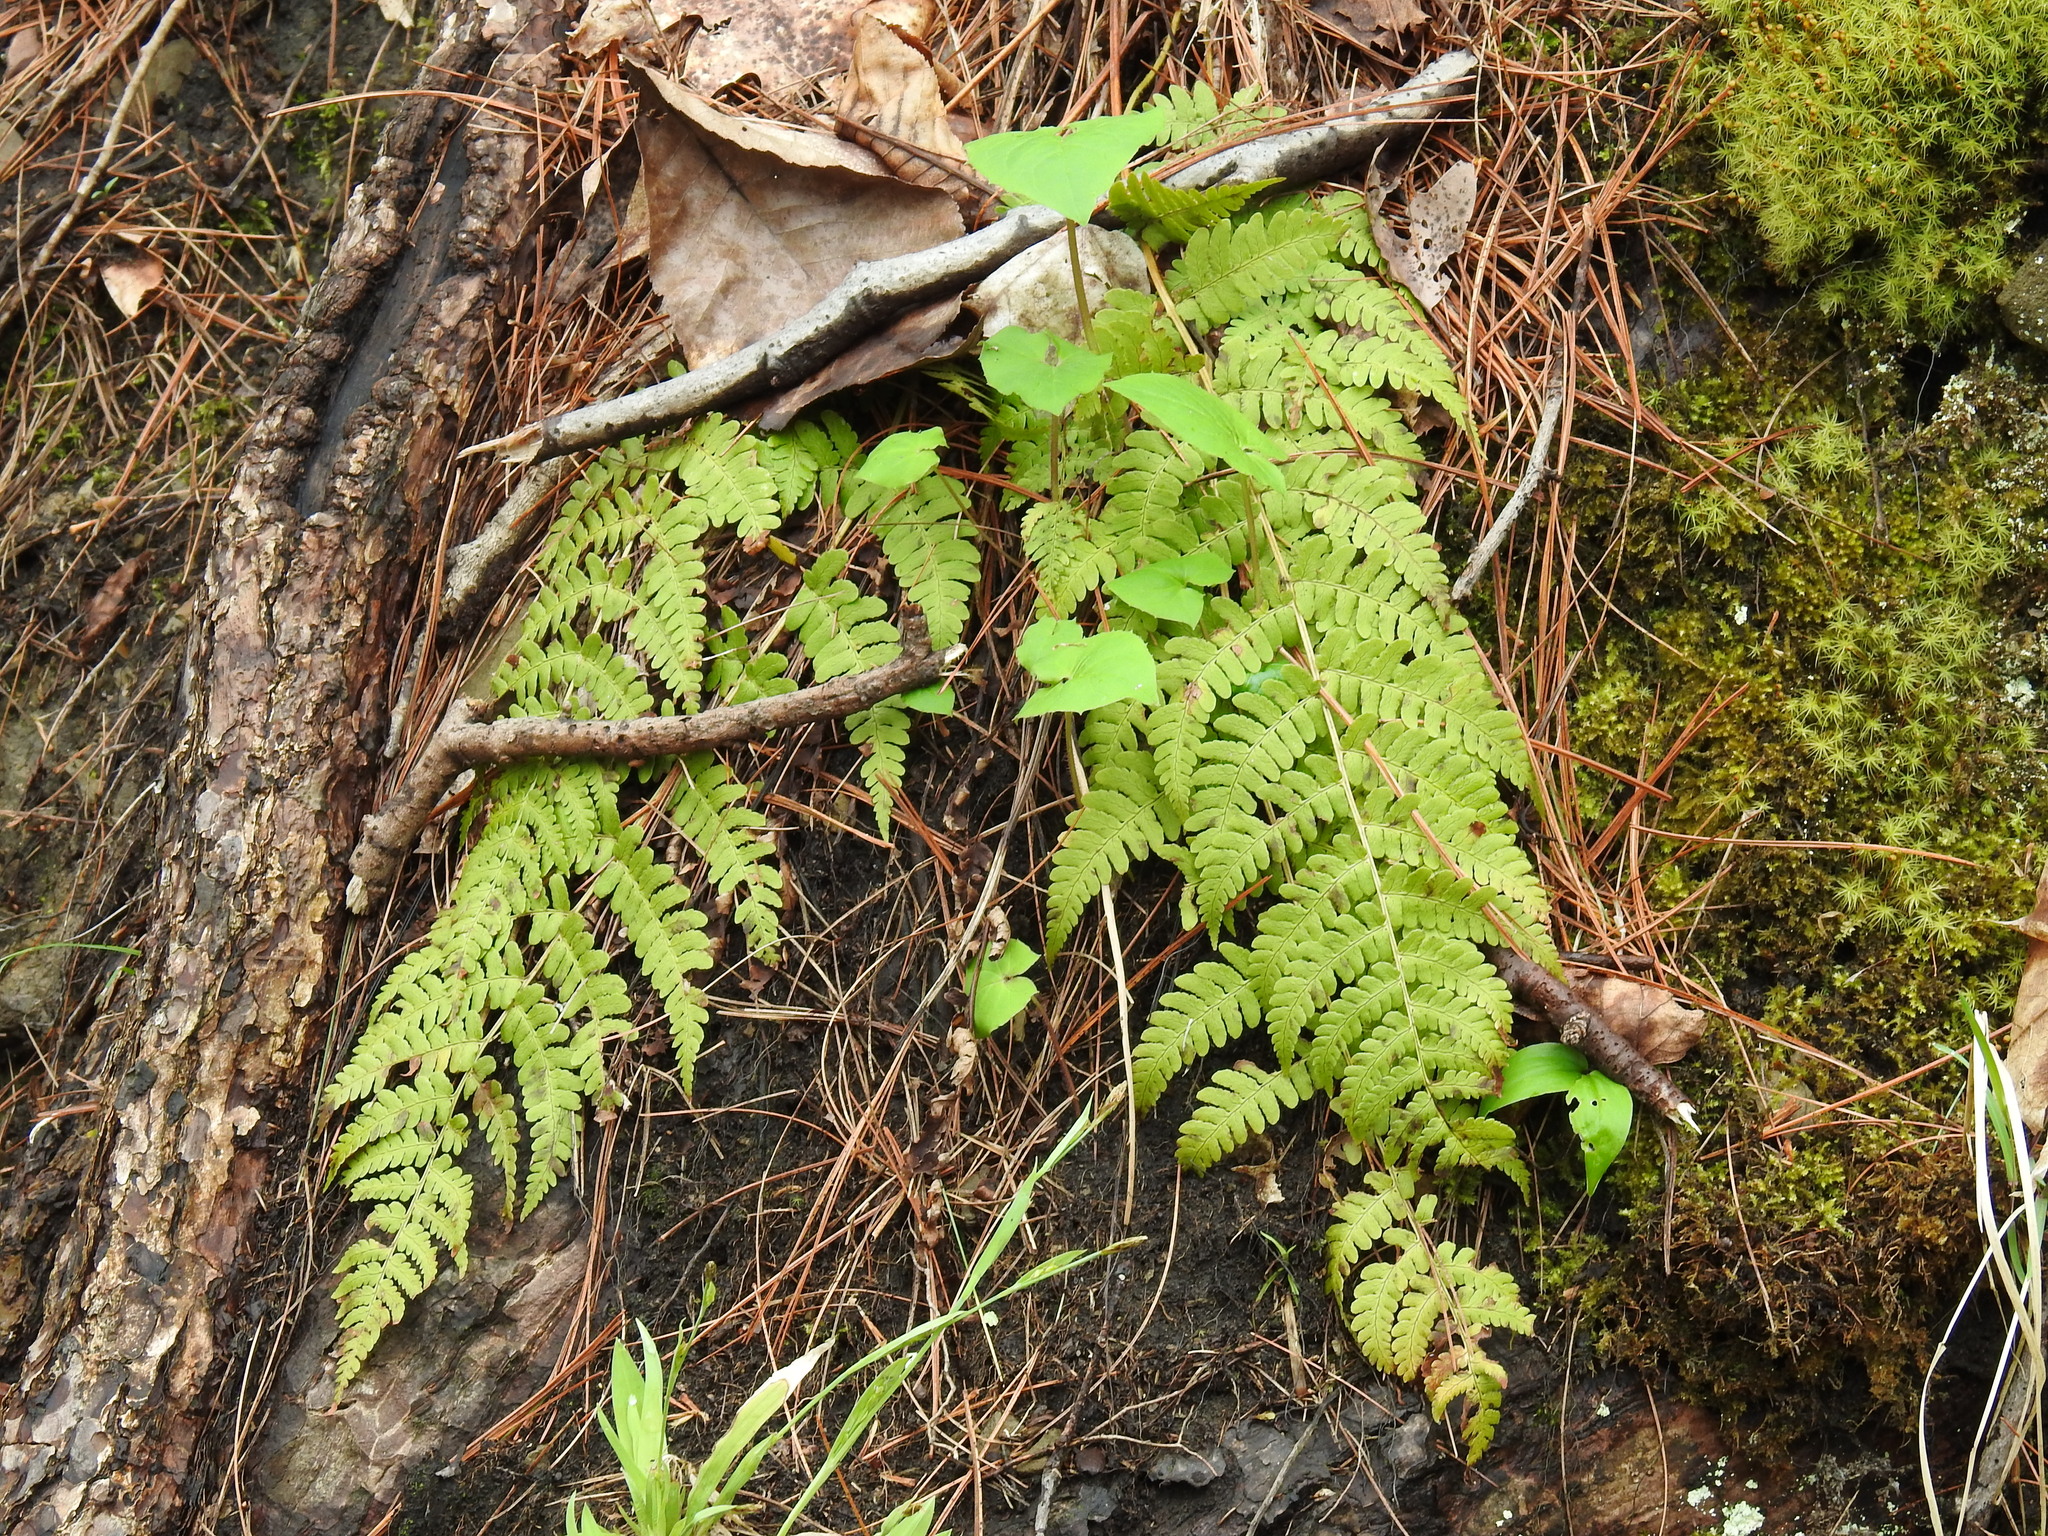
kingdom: Plantae
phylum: Tracheophyta
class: Polypodiopsida
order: Polypodiales
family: Dryopteridaceae
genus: Dryopteris
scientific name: Dryopteris marginalis
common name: Marginal wood fern
